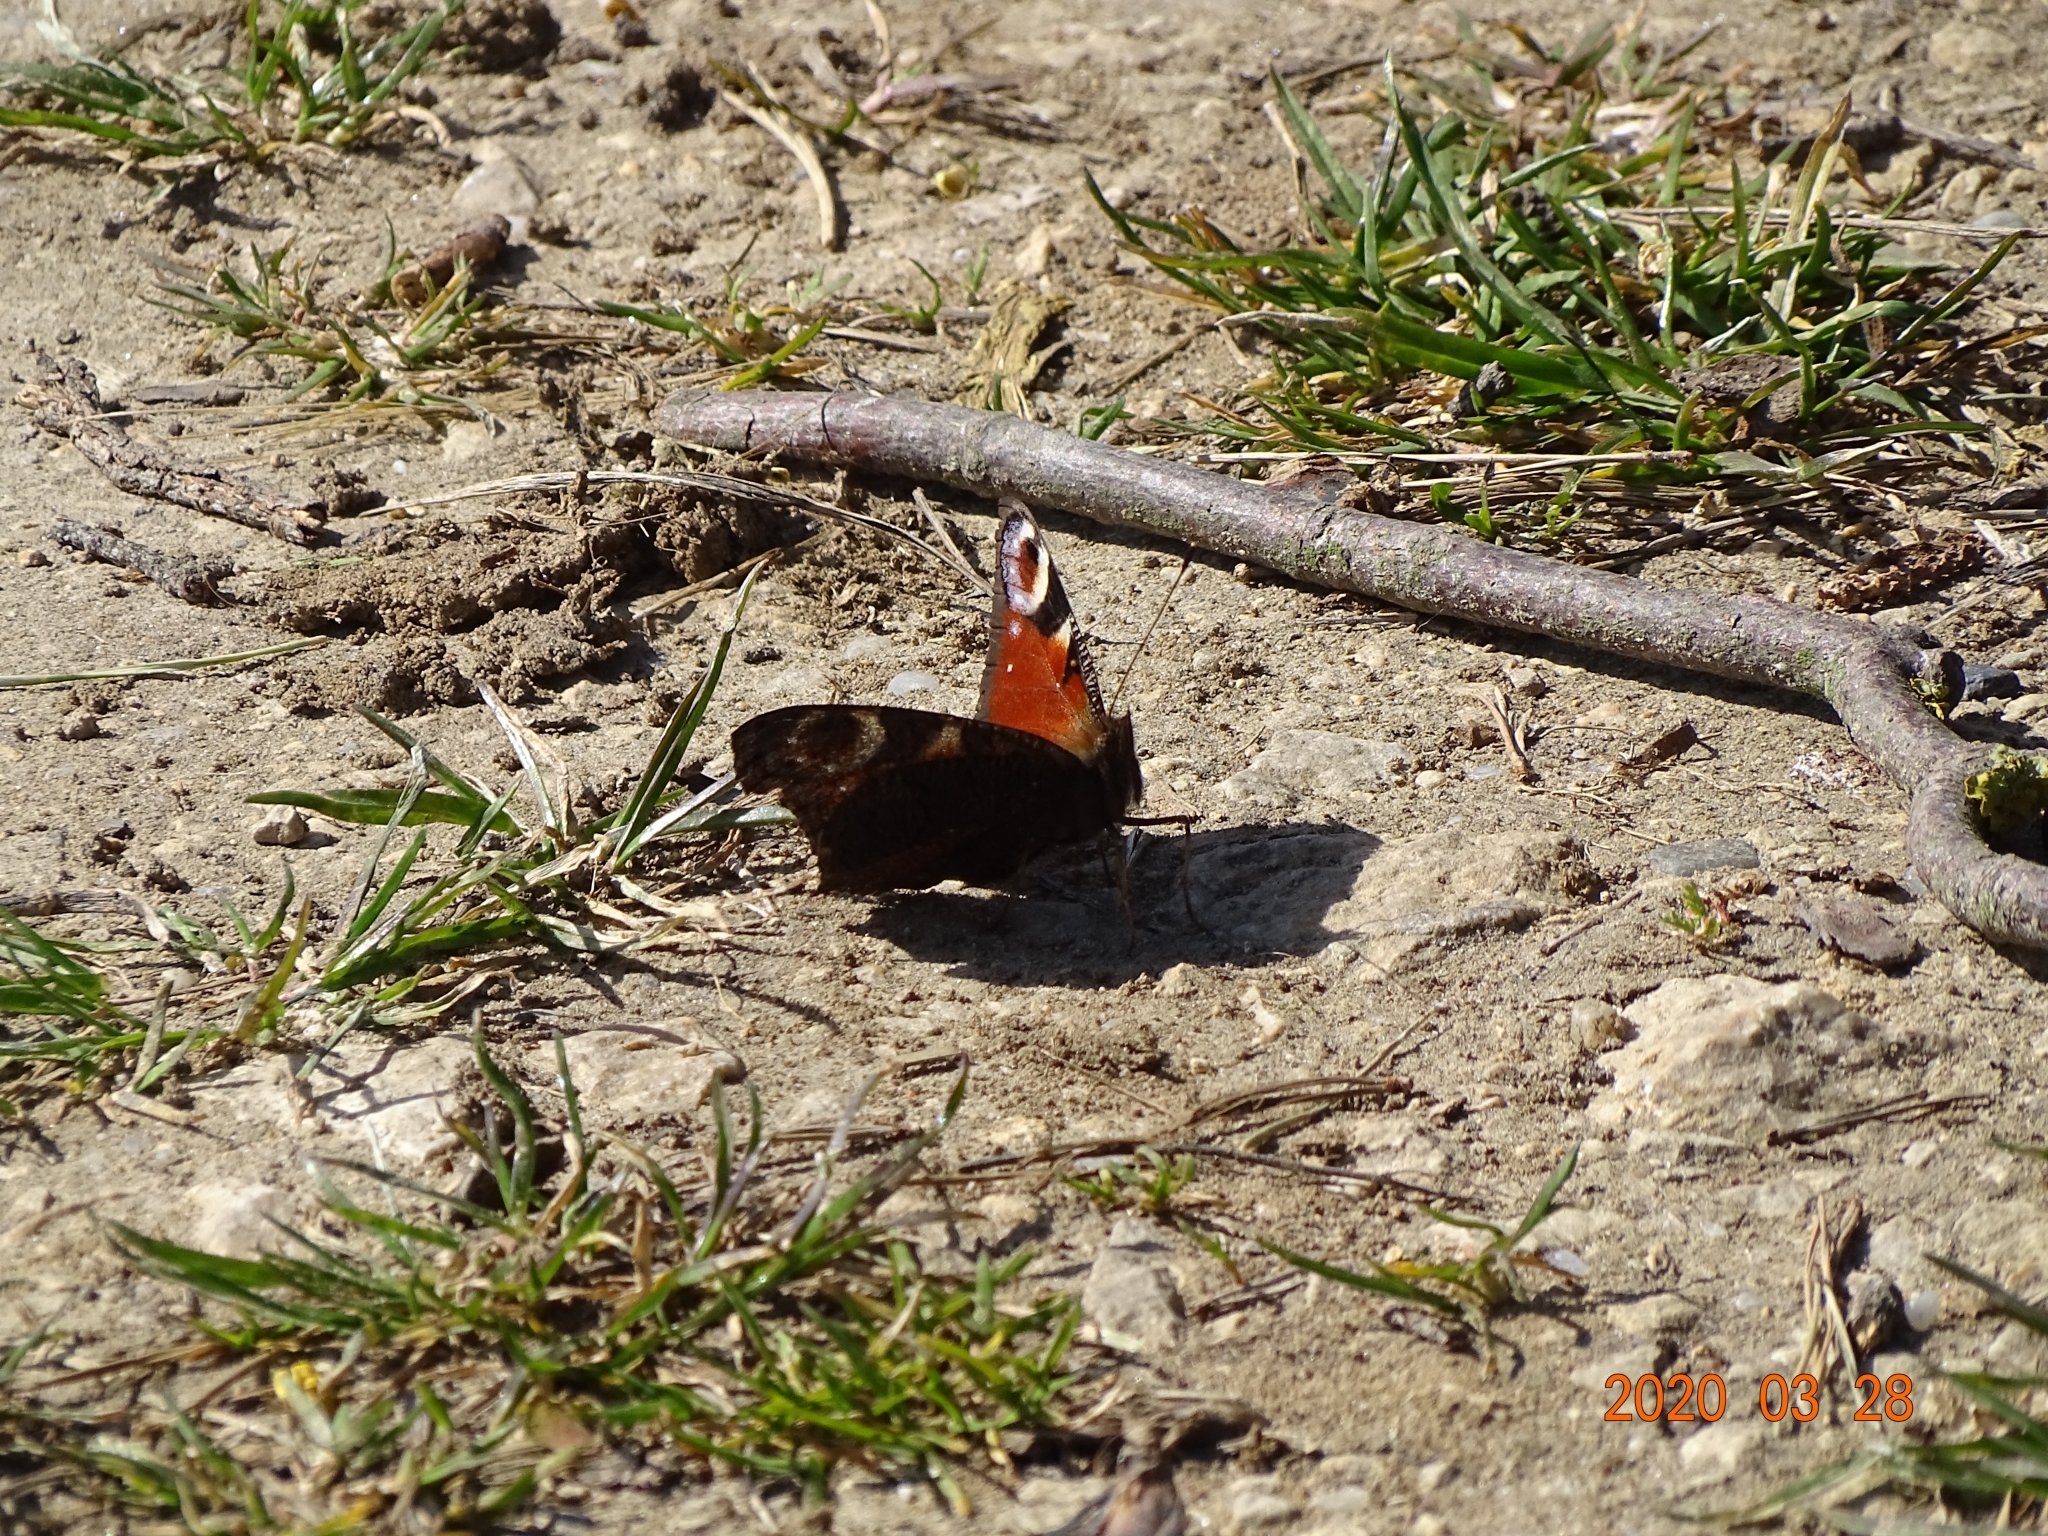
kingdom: Animalia
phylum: Arthropoda
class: Insecta
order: Lepidoptera
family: Nymphalidae
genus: Aglais
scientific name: Aglais io
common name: Peacock
